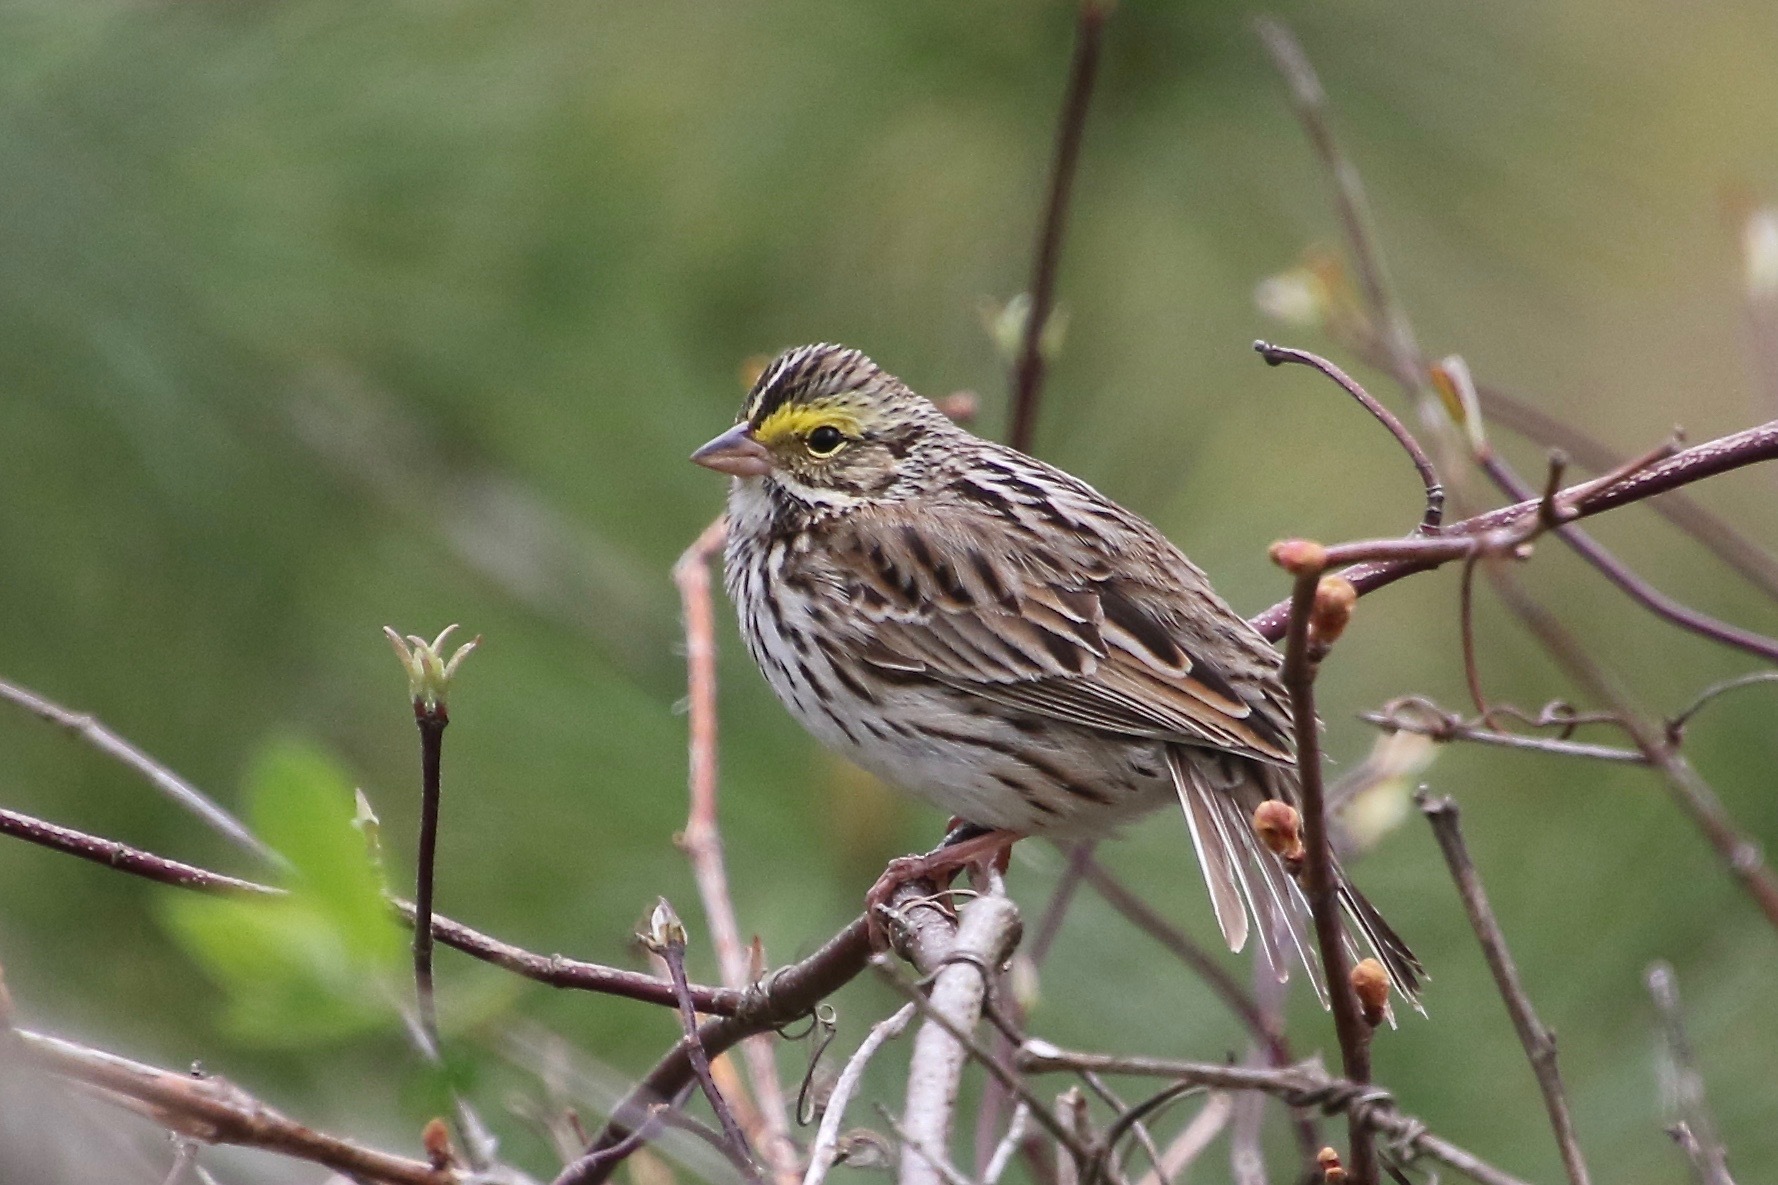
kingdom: Animalia
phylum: Chordata
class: Aves
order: Passeriformes
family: Passerellidae
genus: Passerculus
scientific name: Passerculus sandwichensis
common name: Savannah sparrow
